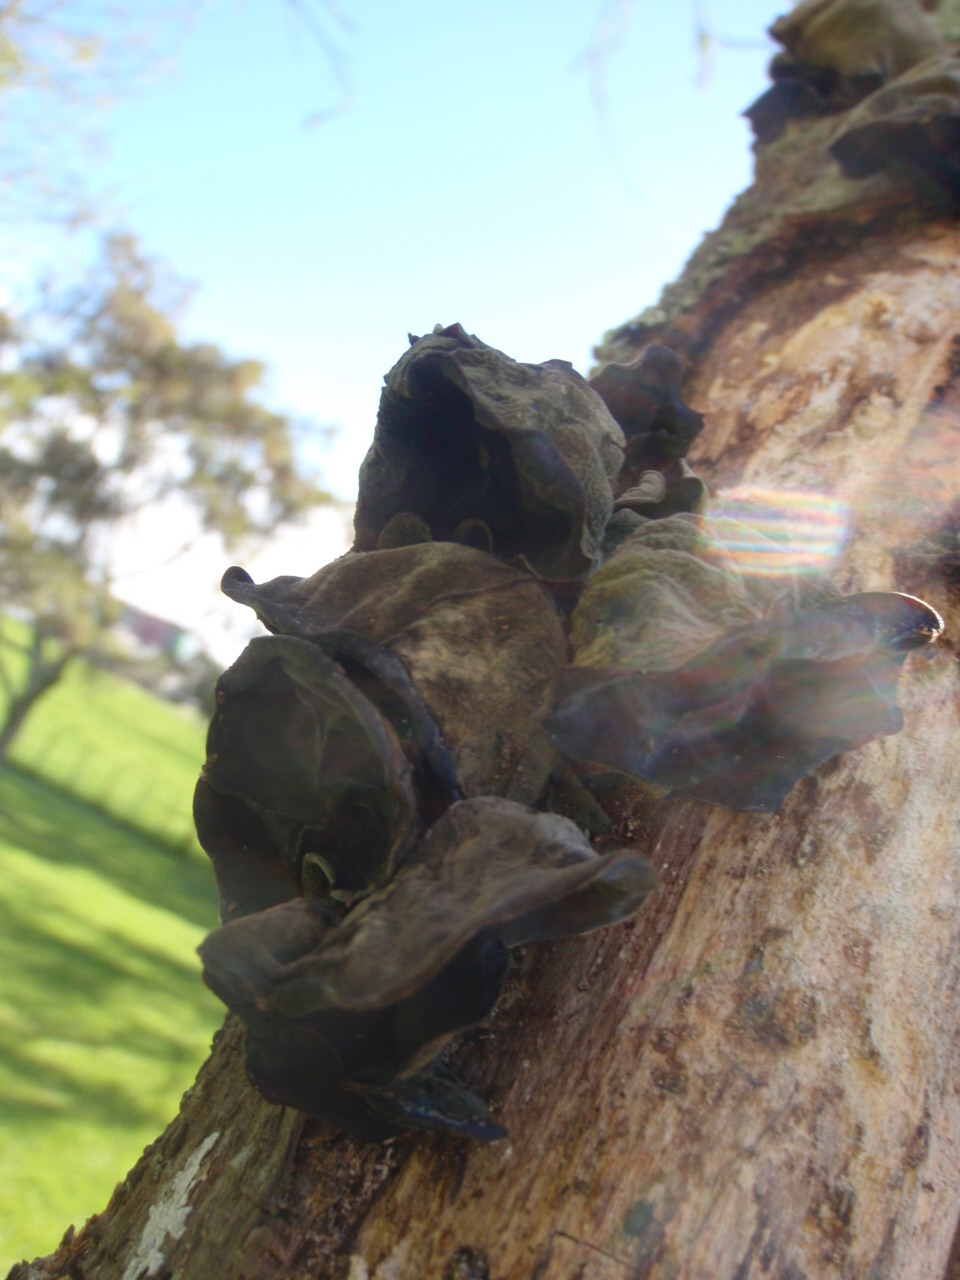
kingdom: Fungi
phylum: Basidiomycota
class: Agaricomycetes
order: Auriculariales
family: Auriculariaceae
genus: Auricularia
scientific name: Auricularia cornea
